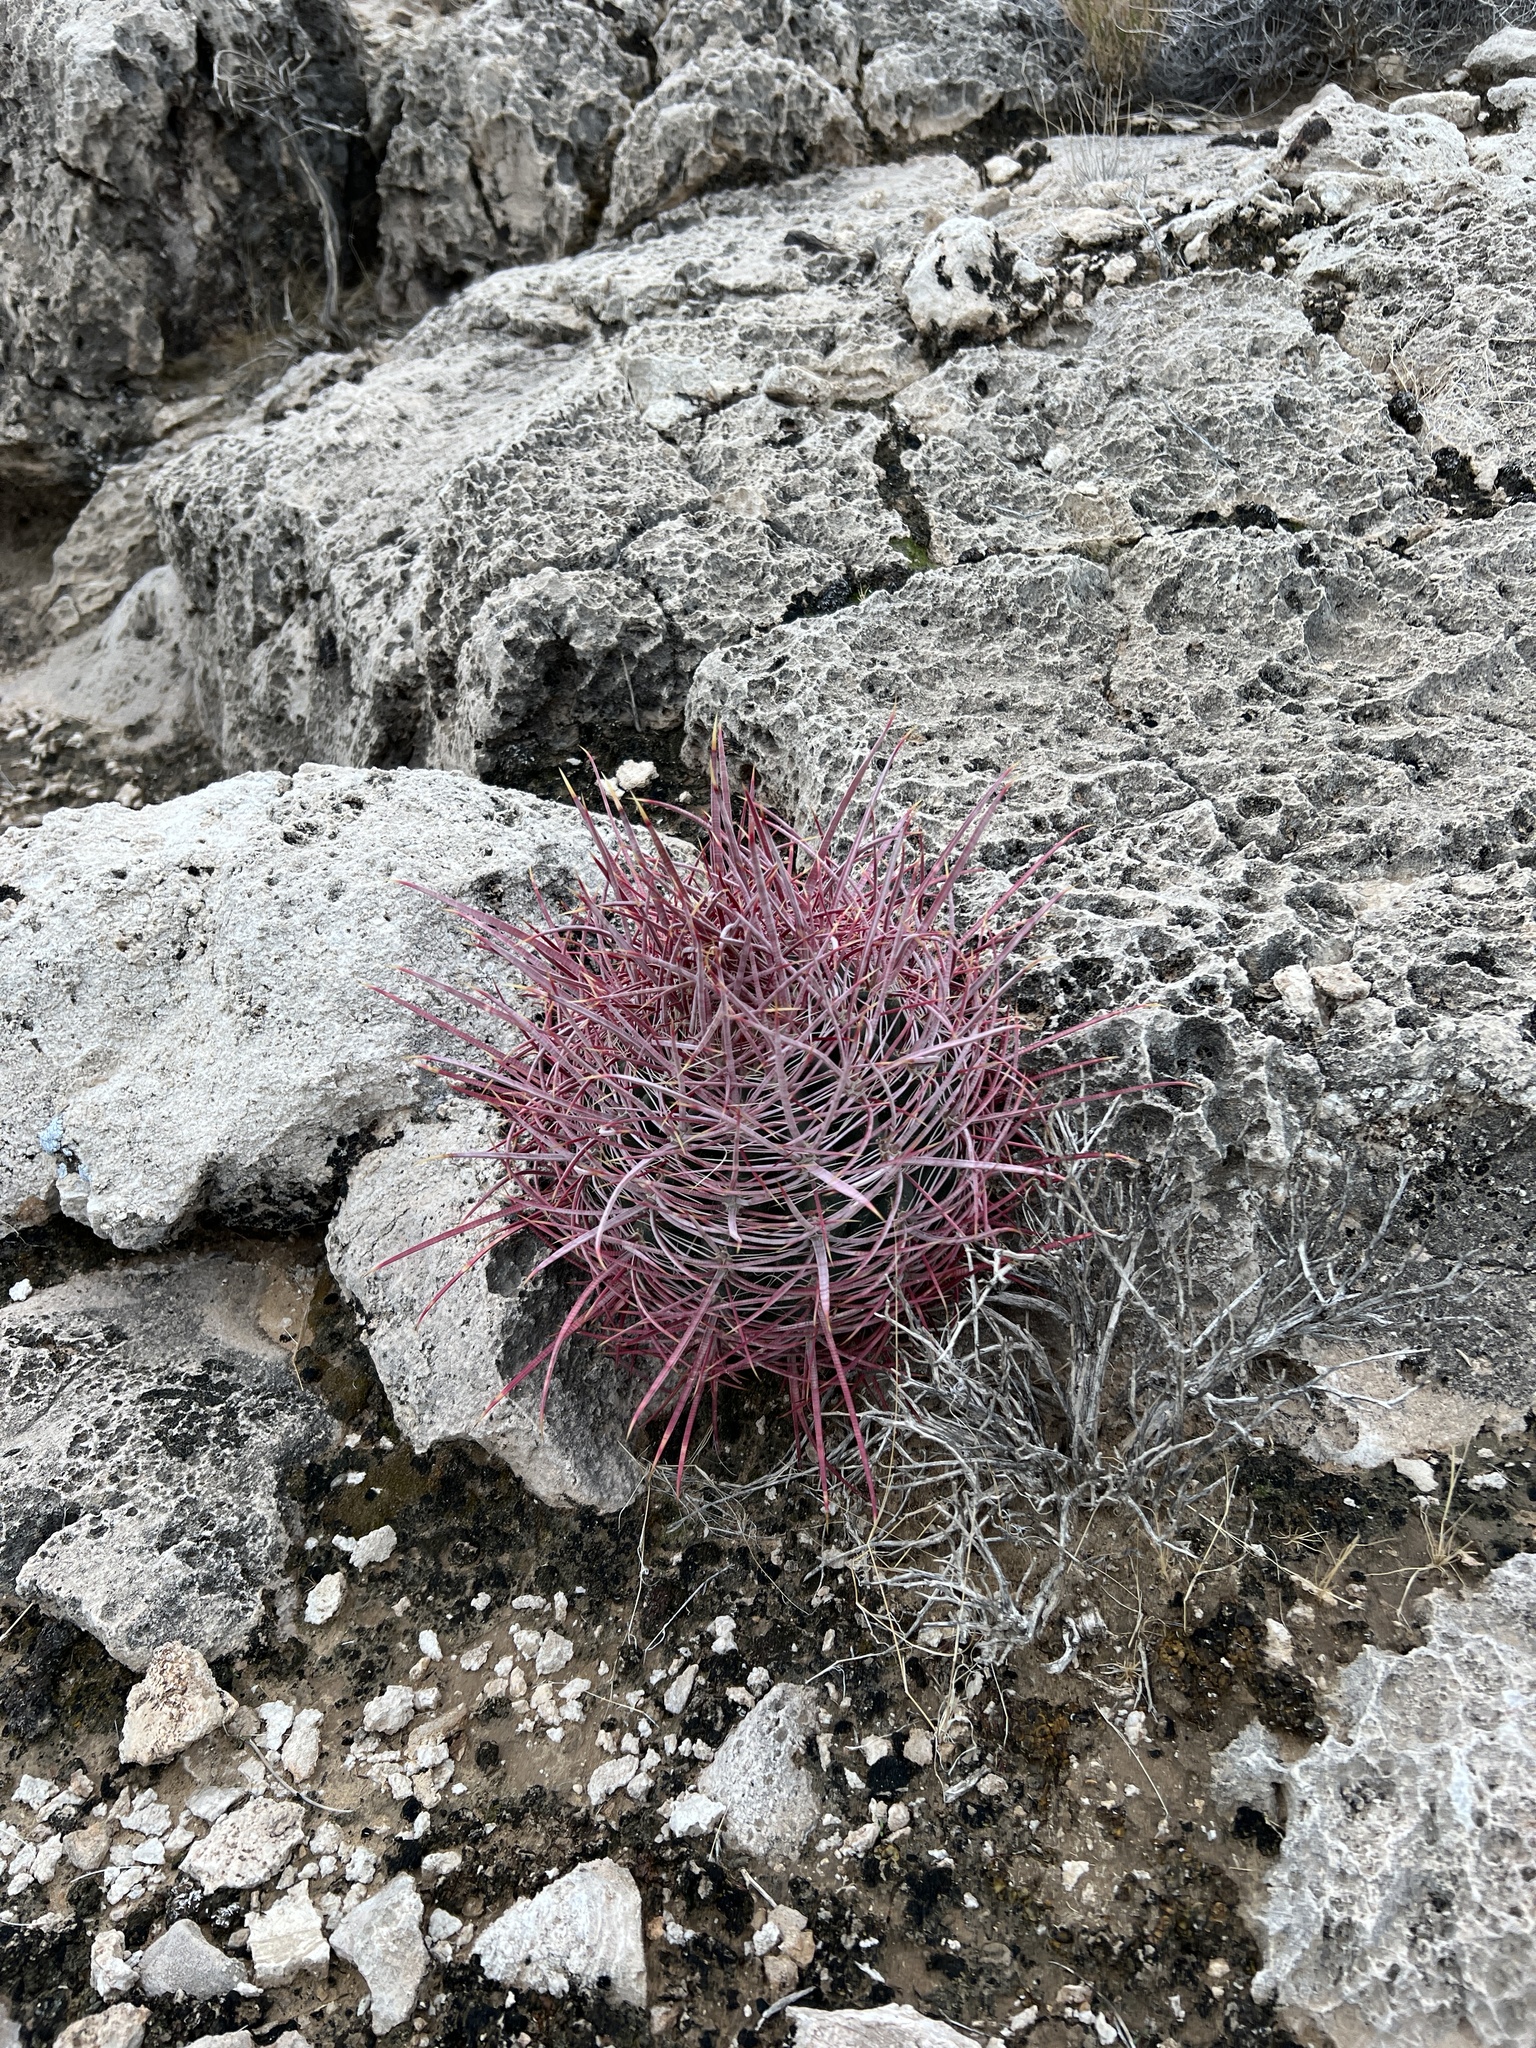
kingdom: Plantae
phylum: Tracheophyta
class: Magnoliopsida
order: Caryophyllales
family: Cactaceae
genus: Ferocactus
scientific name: Ferocactus cylindraceus
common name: California barrel cactus
